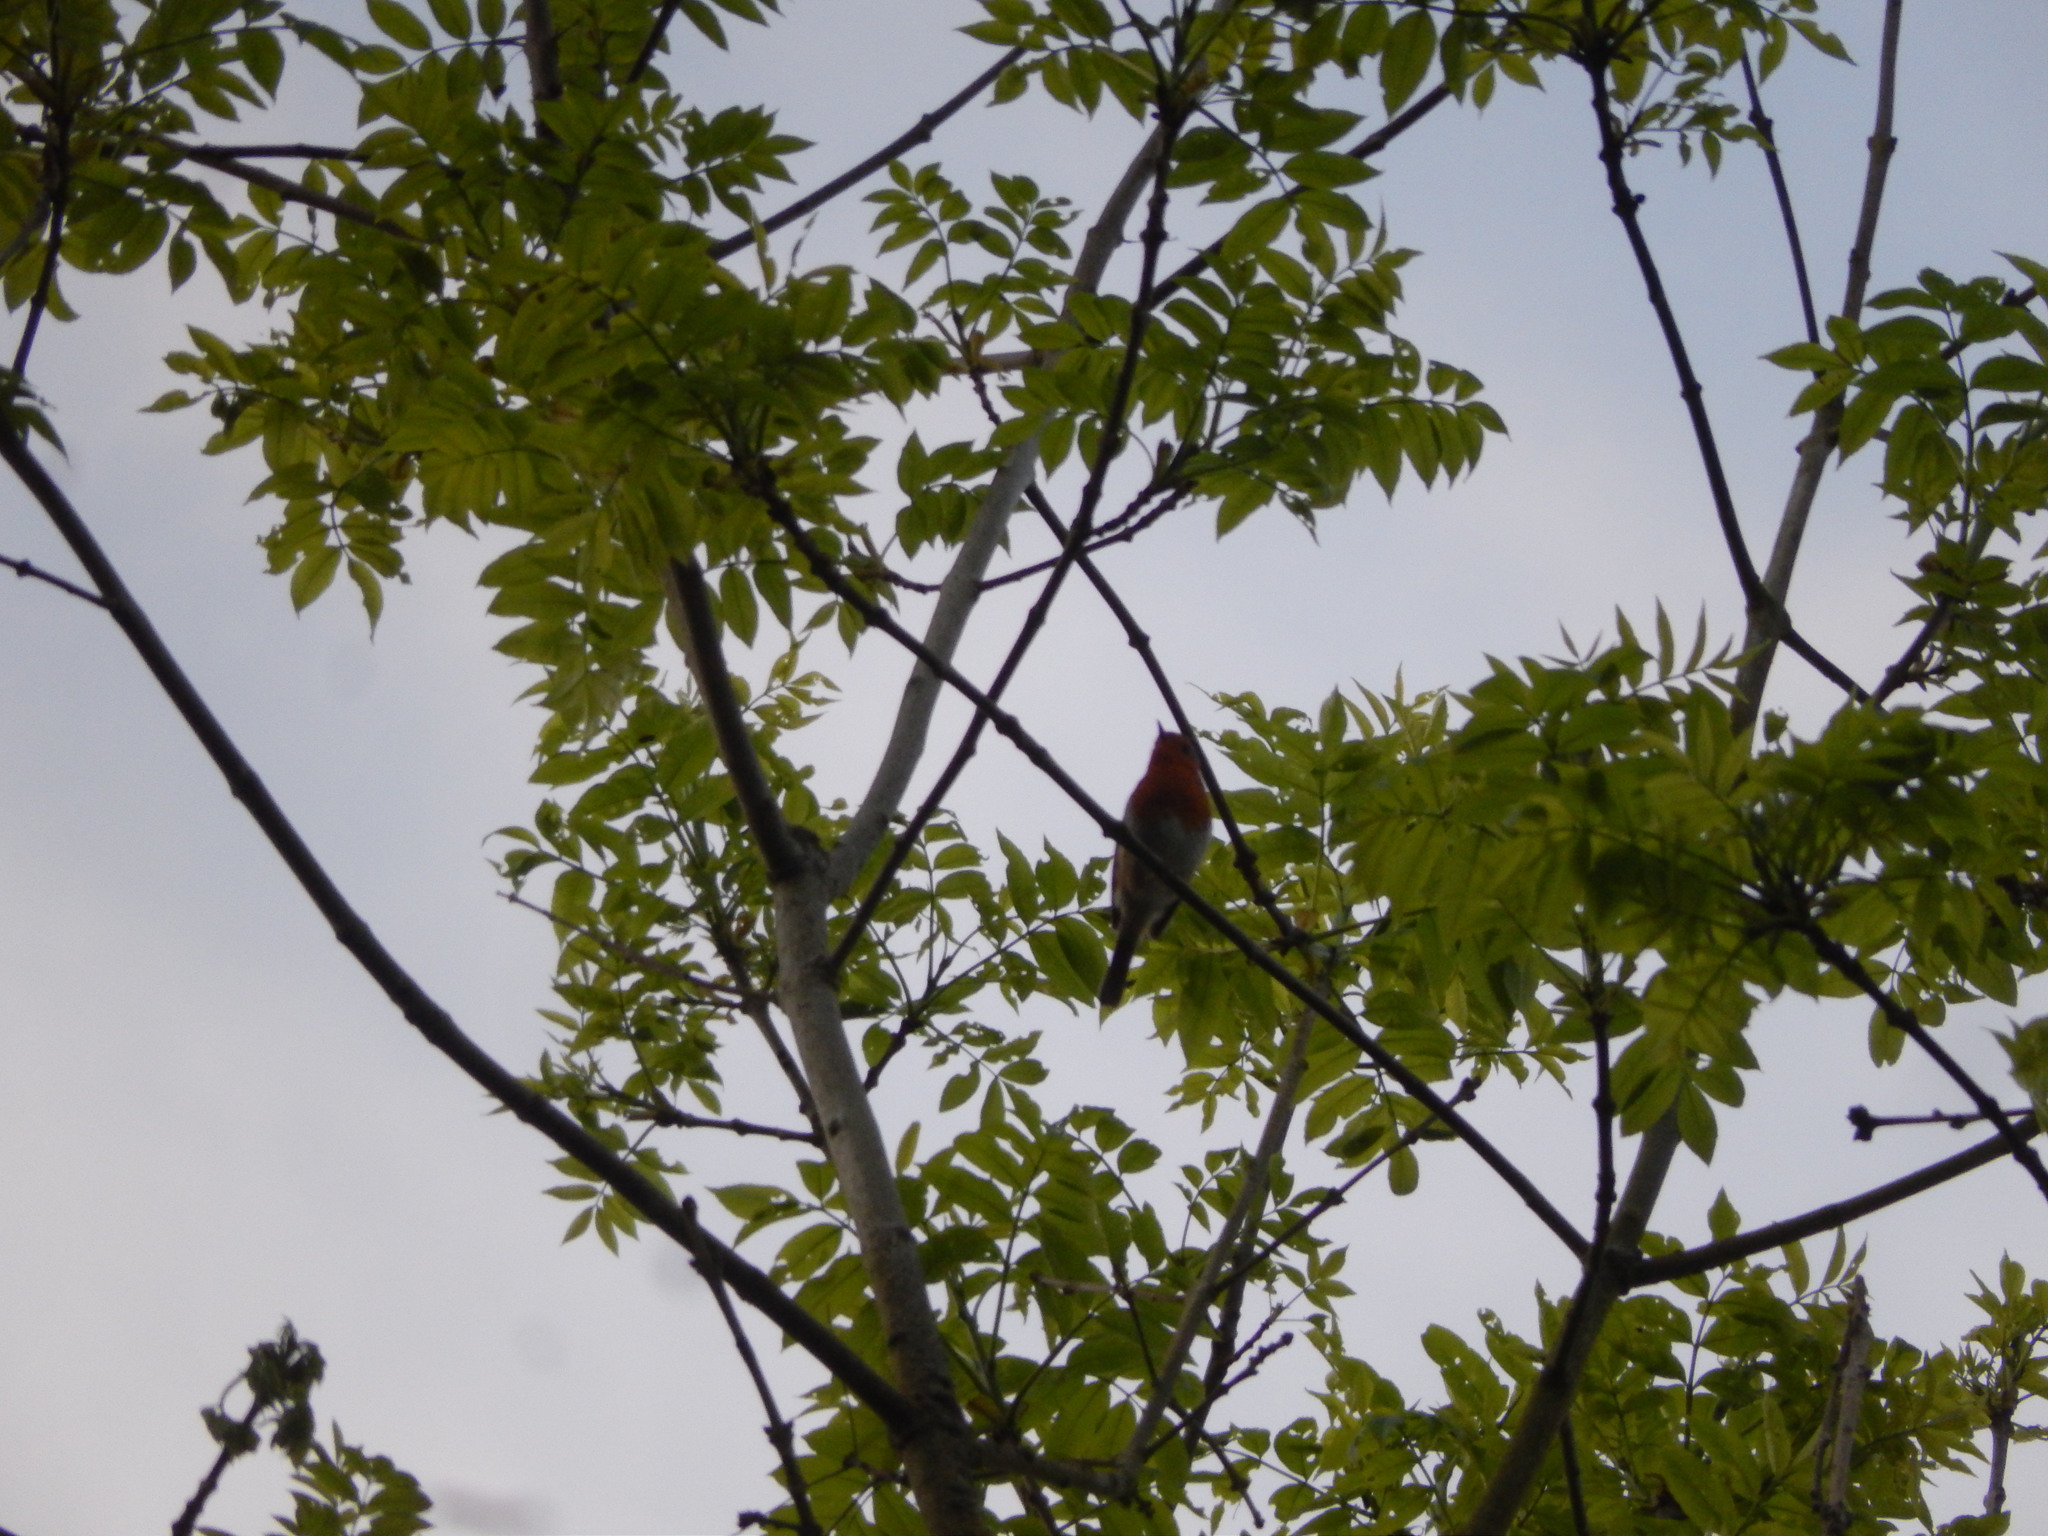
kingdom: Animalia
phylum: Chordata
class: Aves
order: Passeriformes
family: Muscicapidae
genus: Erithacus
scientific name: Erithacus rubecula
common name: European robin
